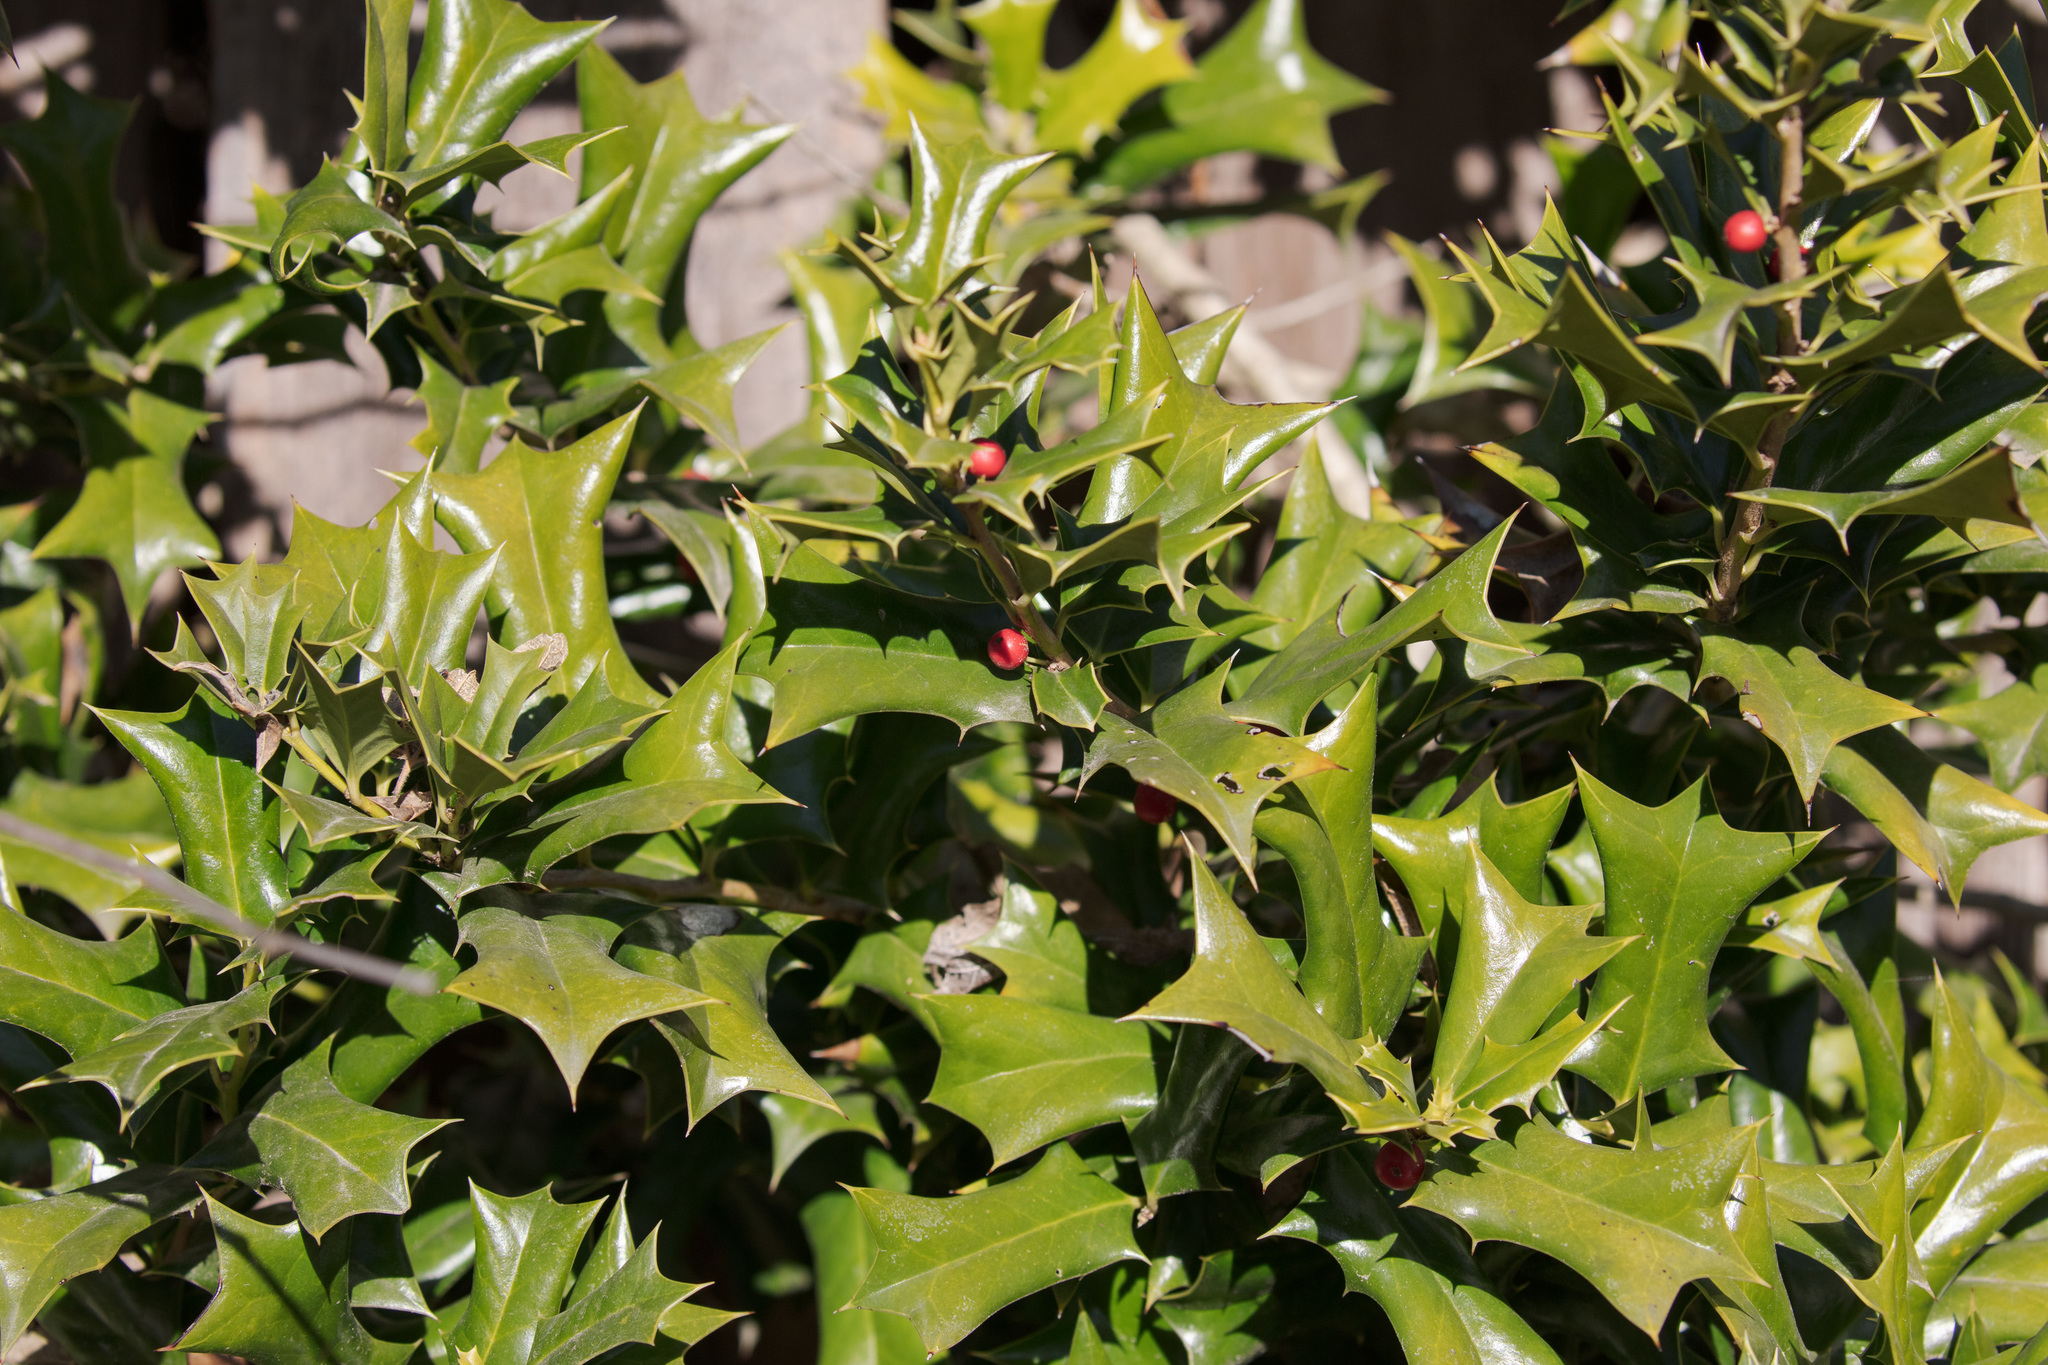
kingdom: Plantae
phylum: Tracheophyta
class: Magnoliopsida
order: Aquifoliales
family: Aquifoliaceae
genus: Ilex
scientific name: Ilex cornuta
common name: Chinese holly
